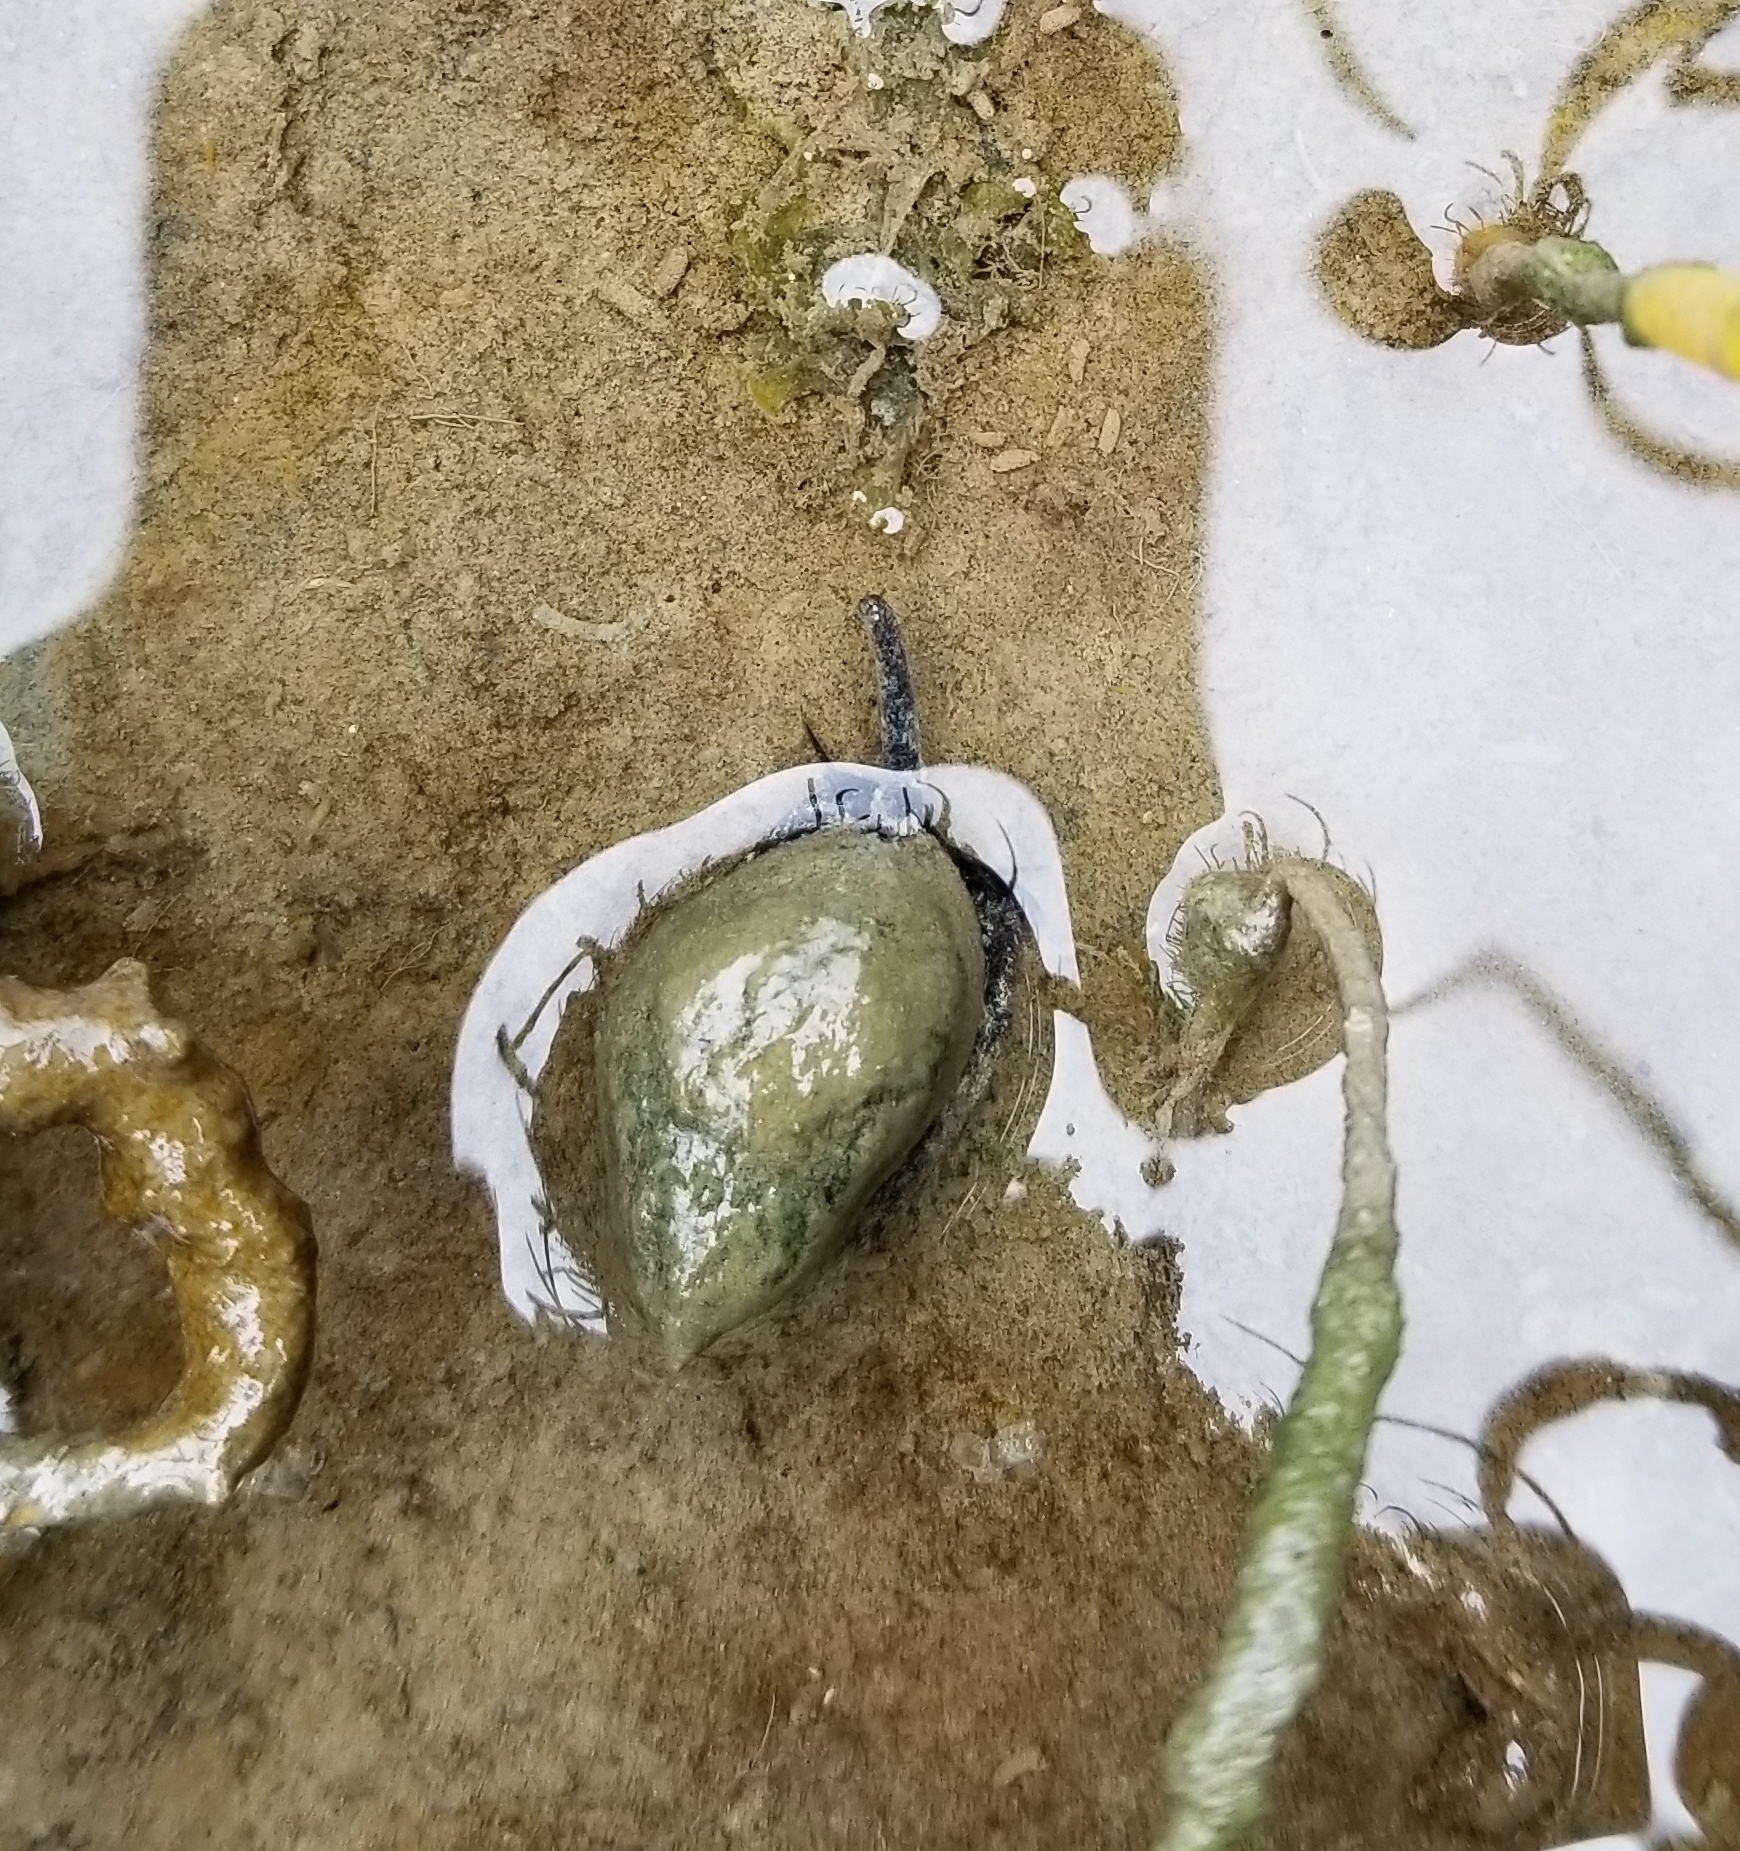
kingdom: Animalia
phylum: Mollusca
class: Gastropoda
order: Neogastropoda
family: Nassariidae
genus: Ilyanassa
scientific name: Ilyanassa obsoleta
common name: Eastern mudsnail
